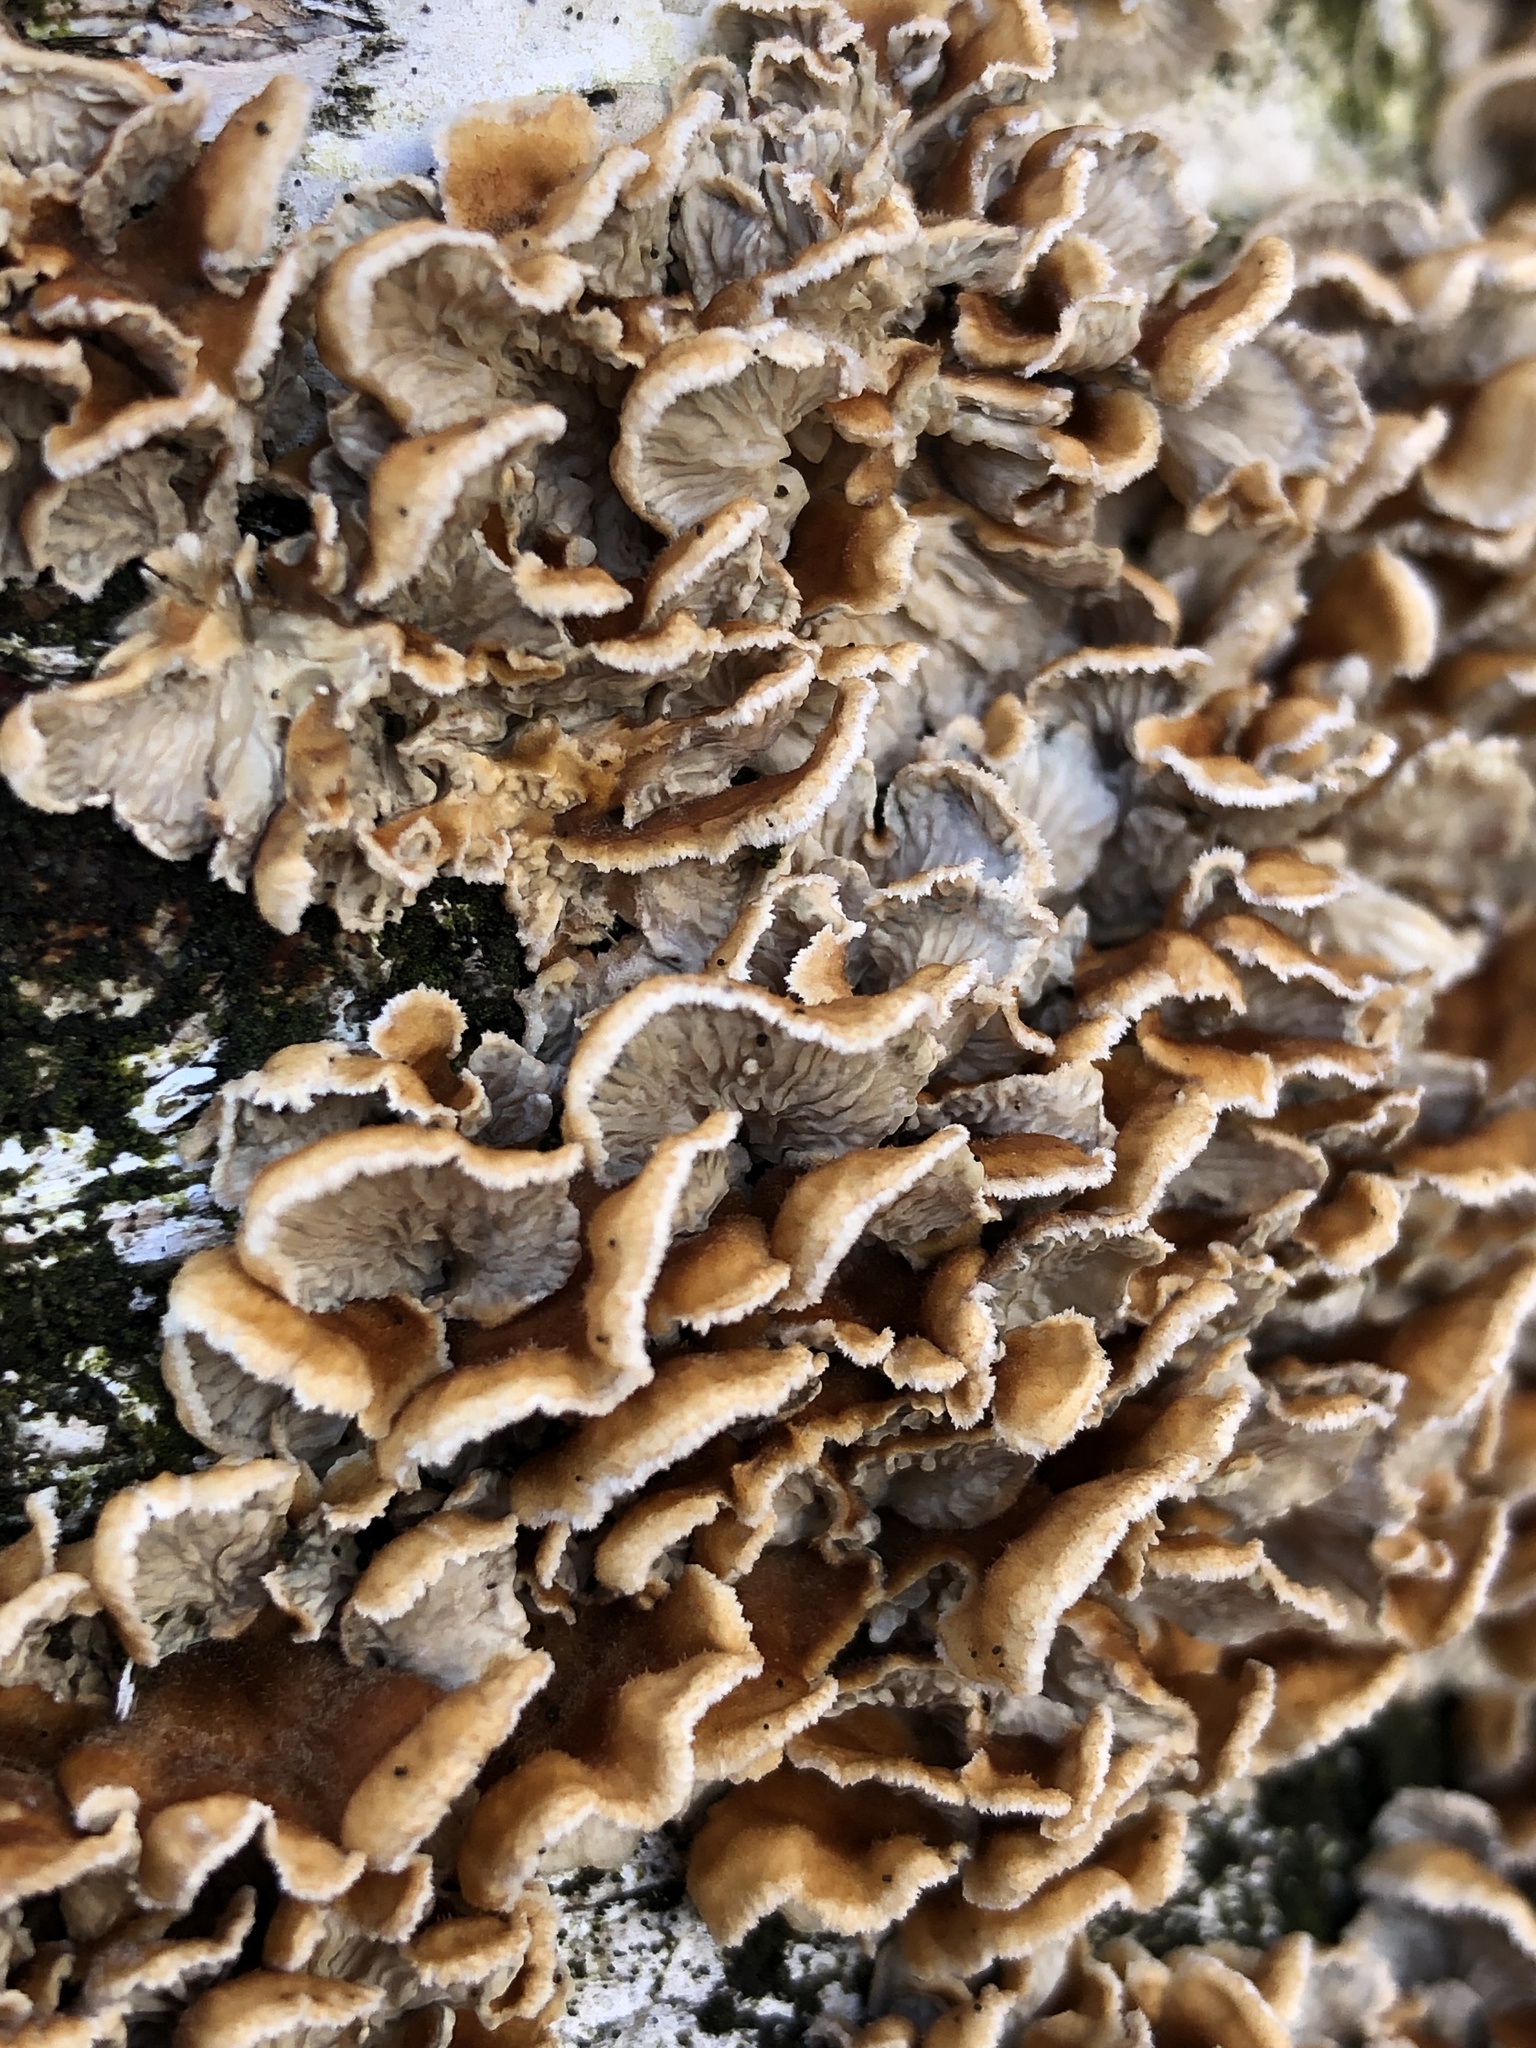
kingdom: Fungi
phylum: Basidiomycota
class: Agaricomycetes
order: Amylocorticiales
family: Amylocorticiaceae
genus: Plicaturopsis
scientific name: Plicaturopsis crispa
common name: Crimped gill
